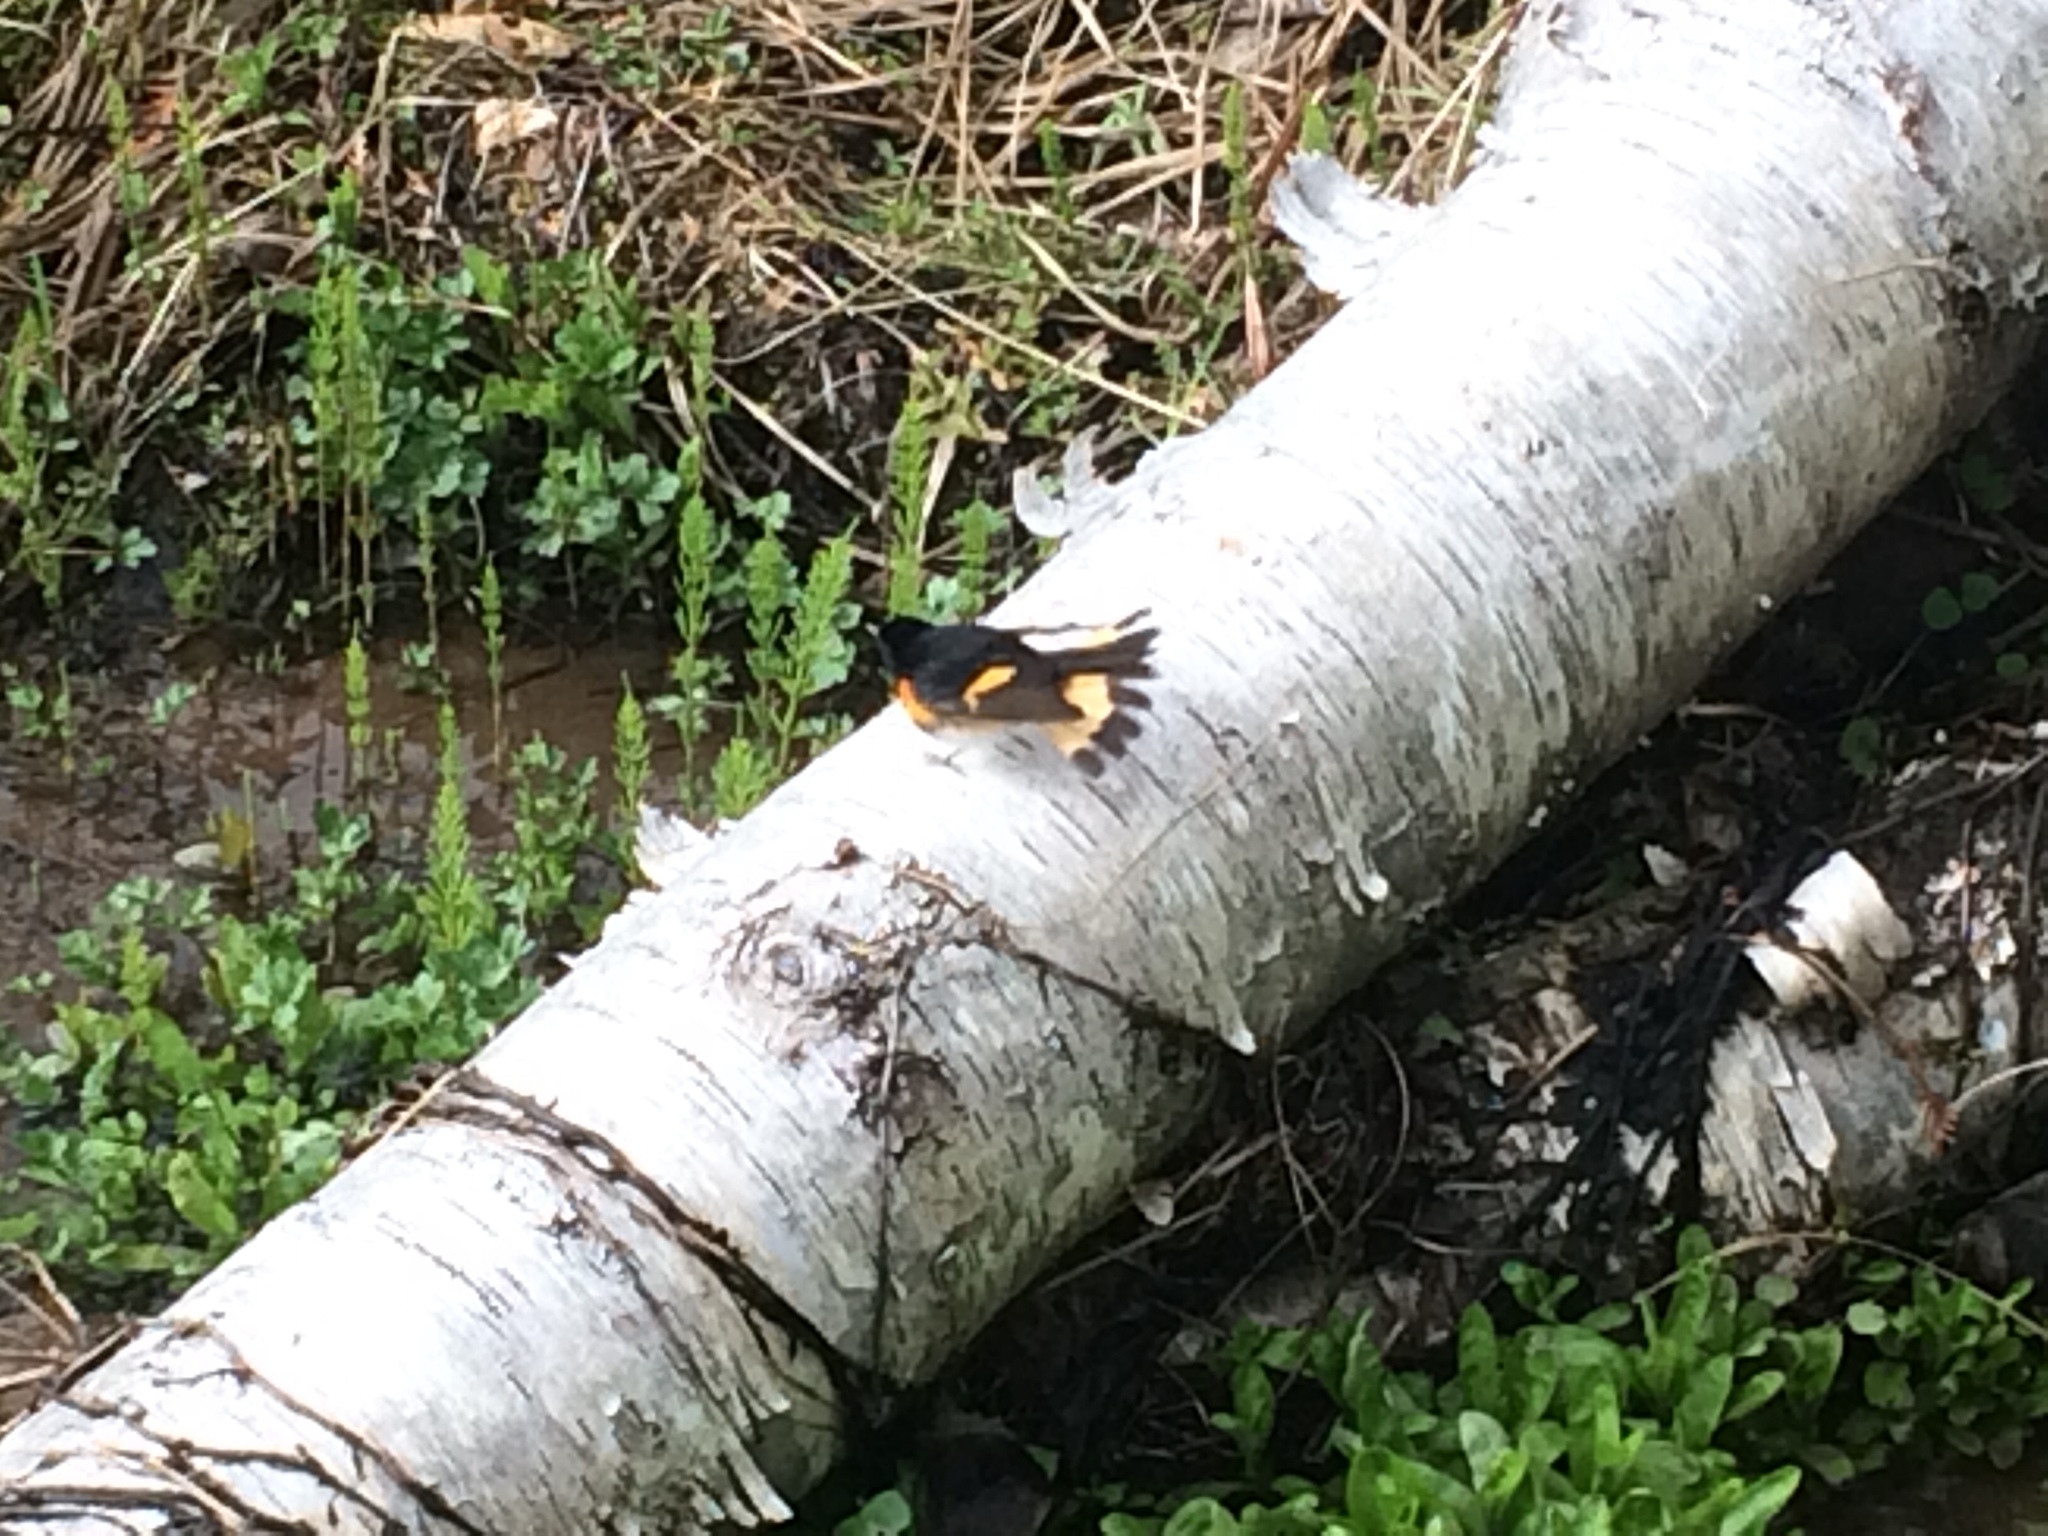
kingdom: Animalia
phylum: Chordata
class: Aves
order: Passeriformes
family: Parulidae
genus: Setophaga
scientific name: Setophaga ruticilla
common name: American redstart
